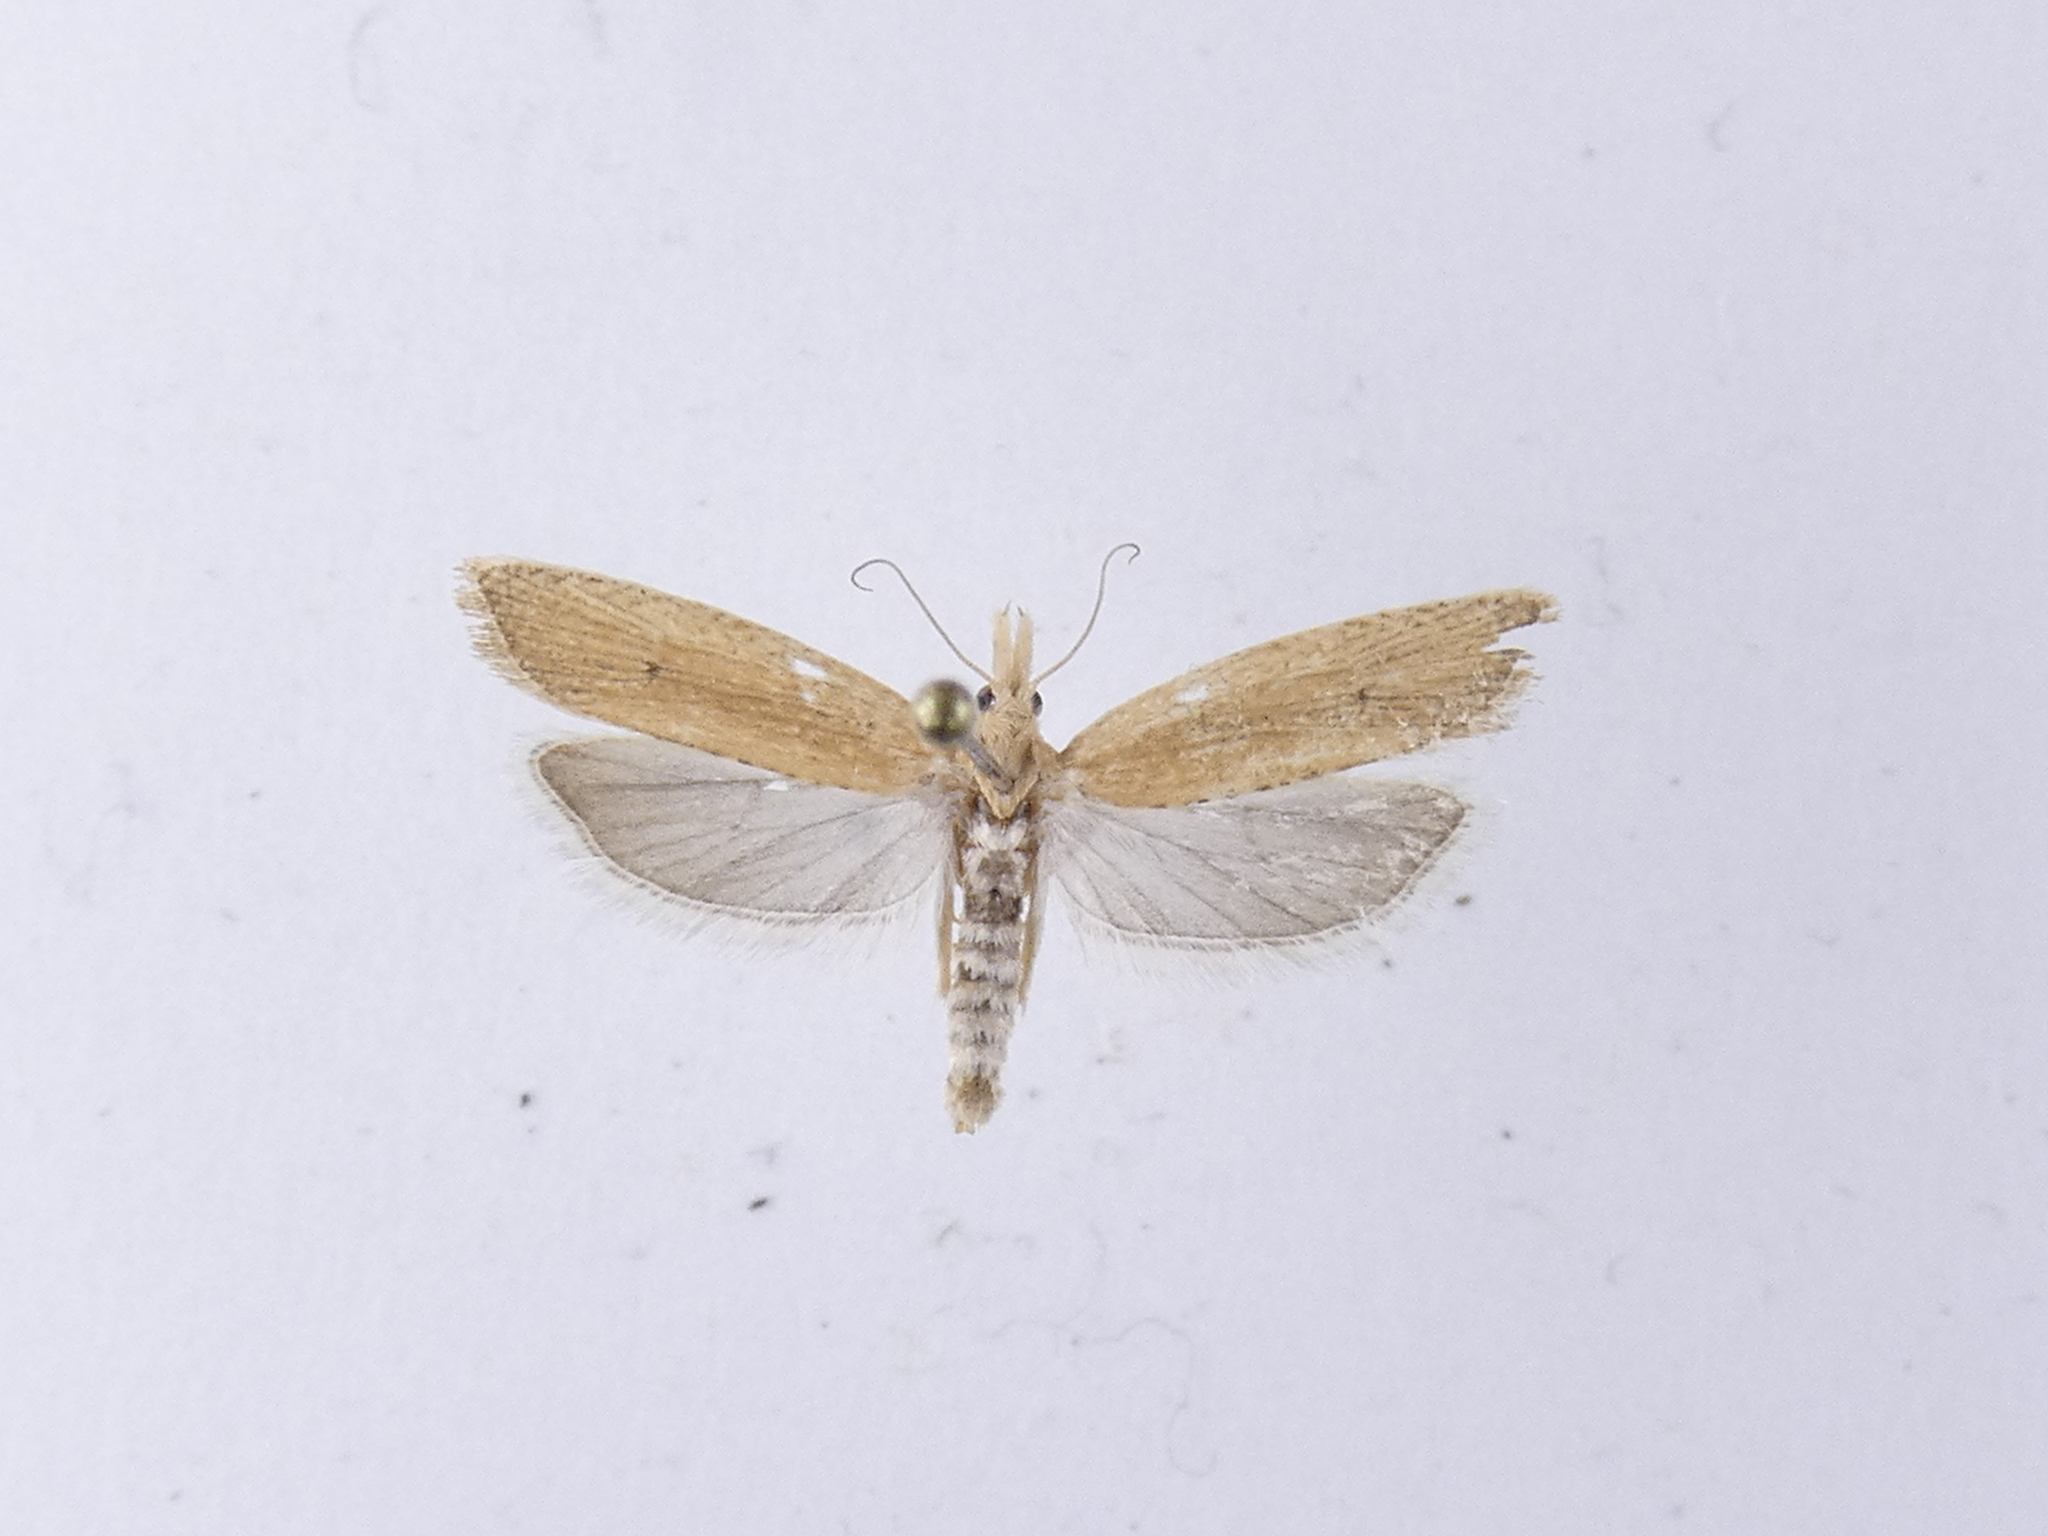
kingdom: Animalia
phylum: Arthropoda
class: Insecta
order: Lepidoptera
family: Tortricidae
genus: Bactra
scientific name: Bactra noteraula
